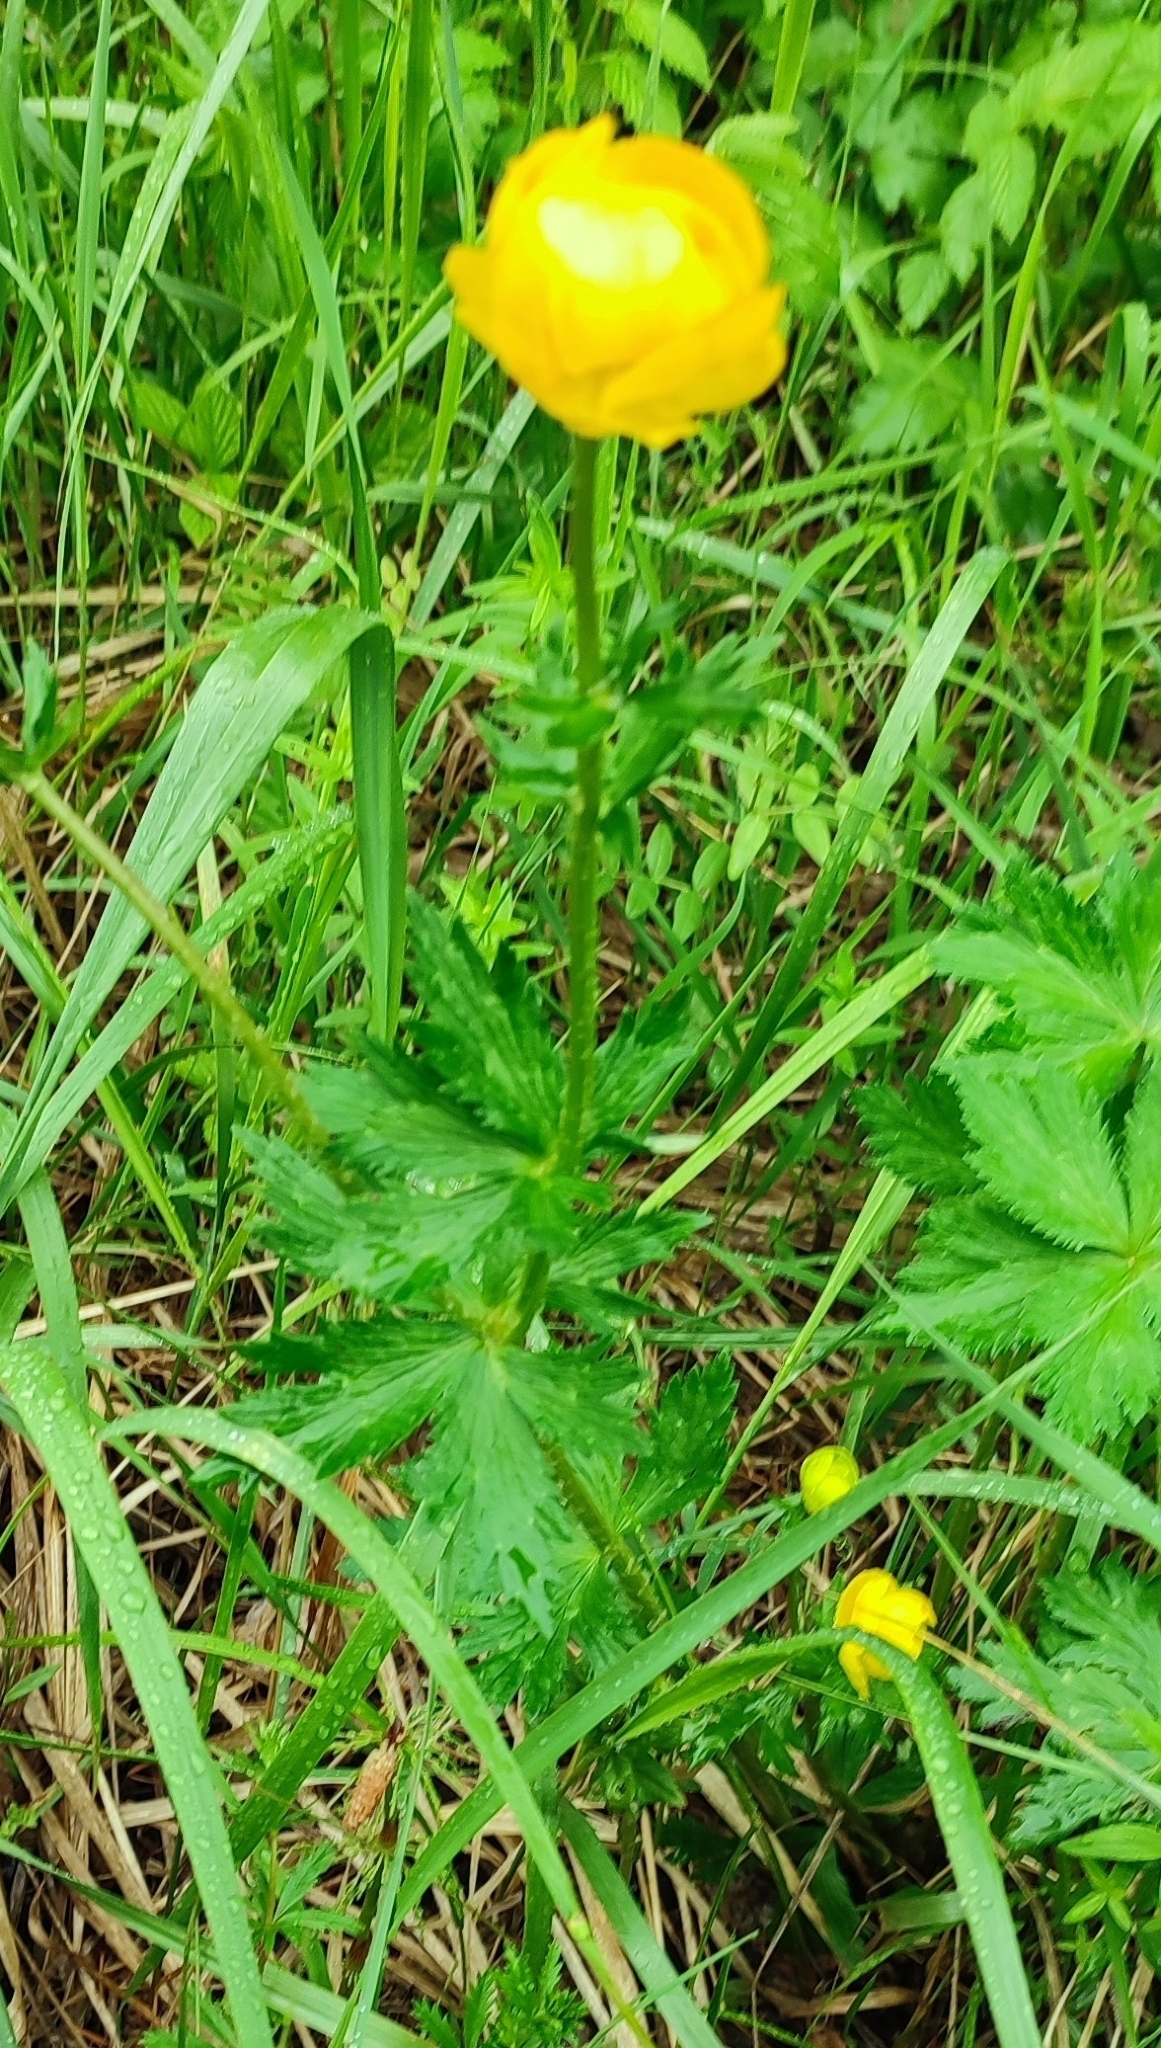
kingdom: Plantae
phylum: Tracheophyta
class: Magnoliopsida
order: Ranunculales
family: Ranunculaceae
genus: Trollius
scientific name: Trollius europaeus
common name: European globeflower
